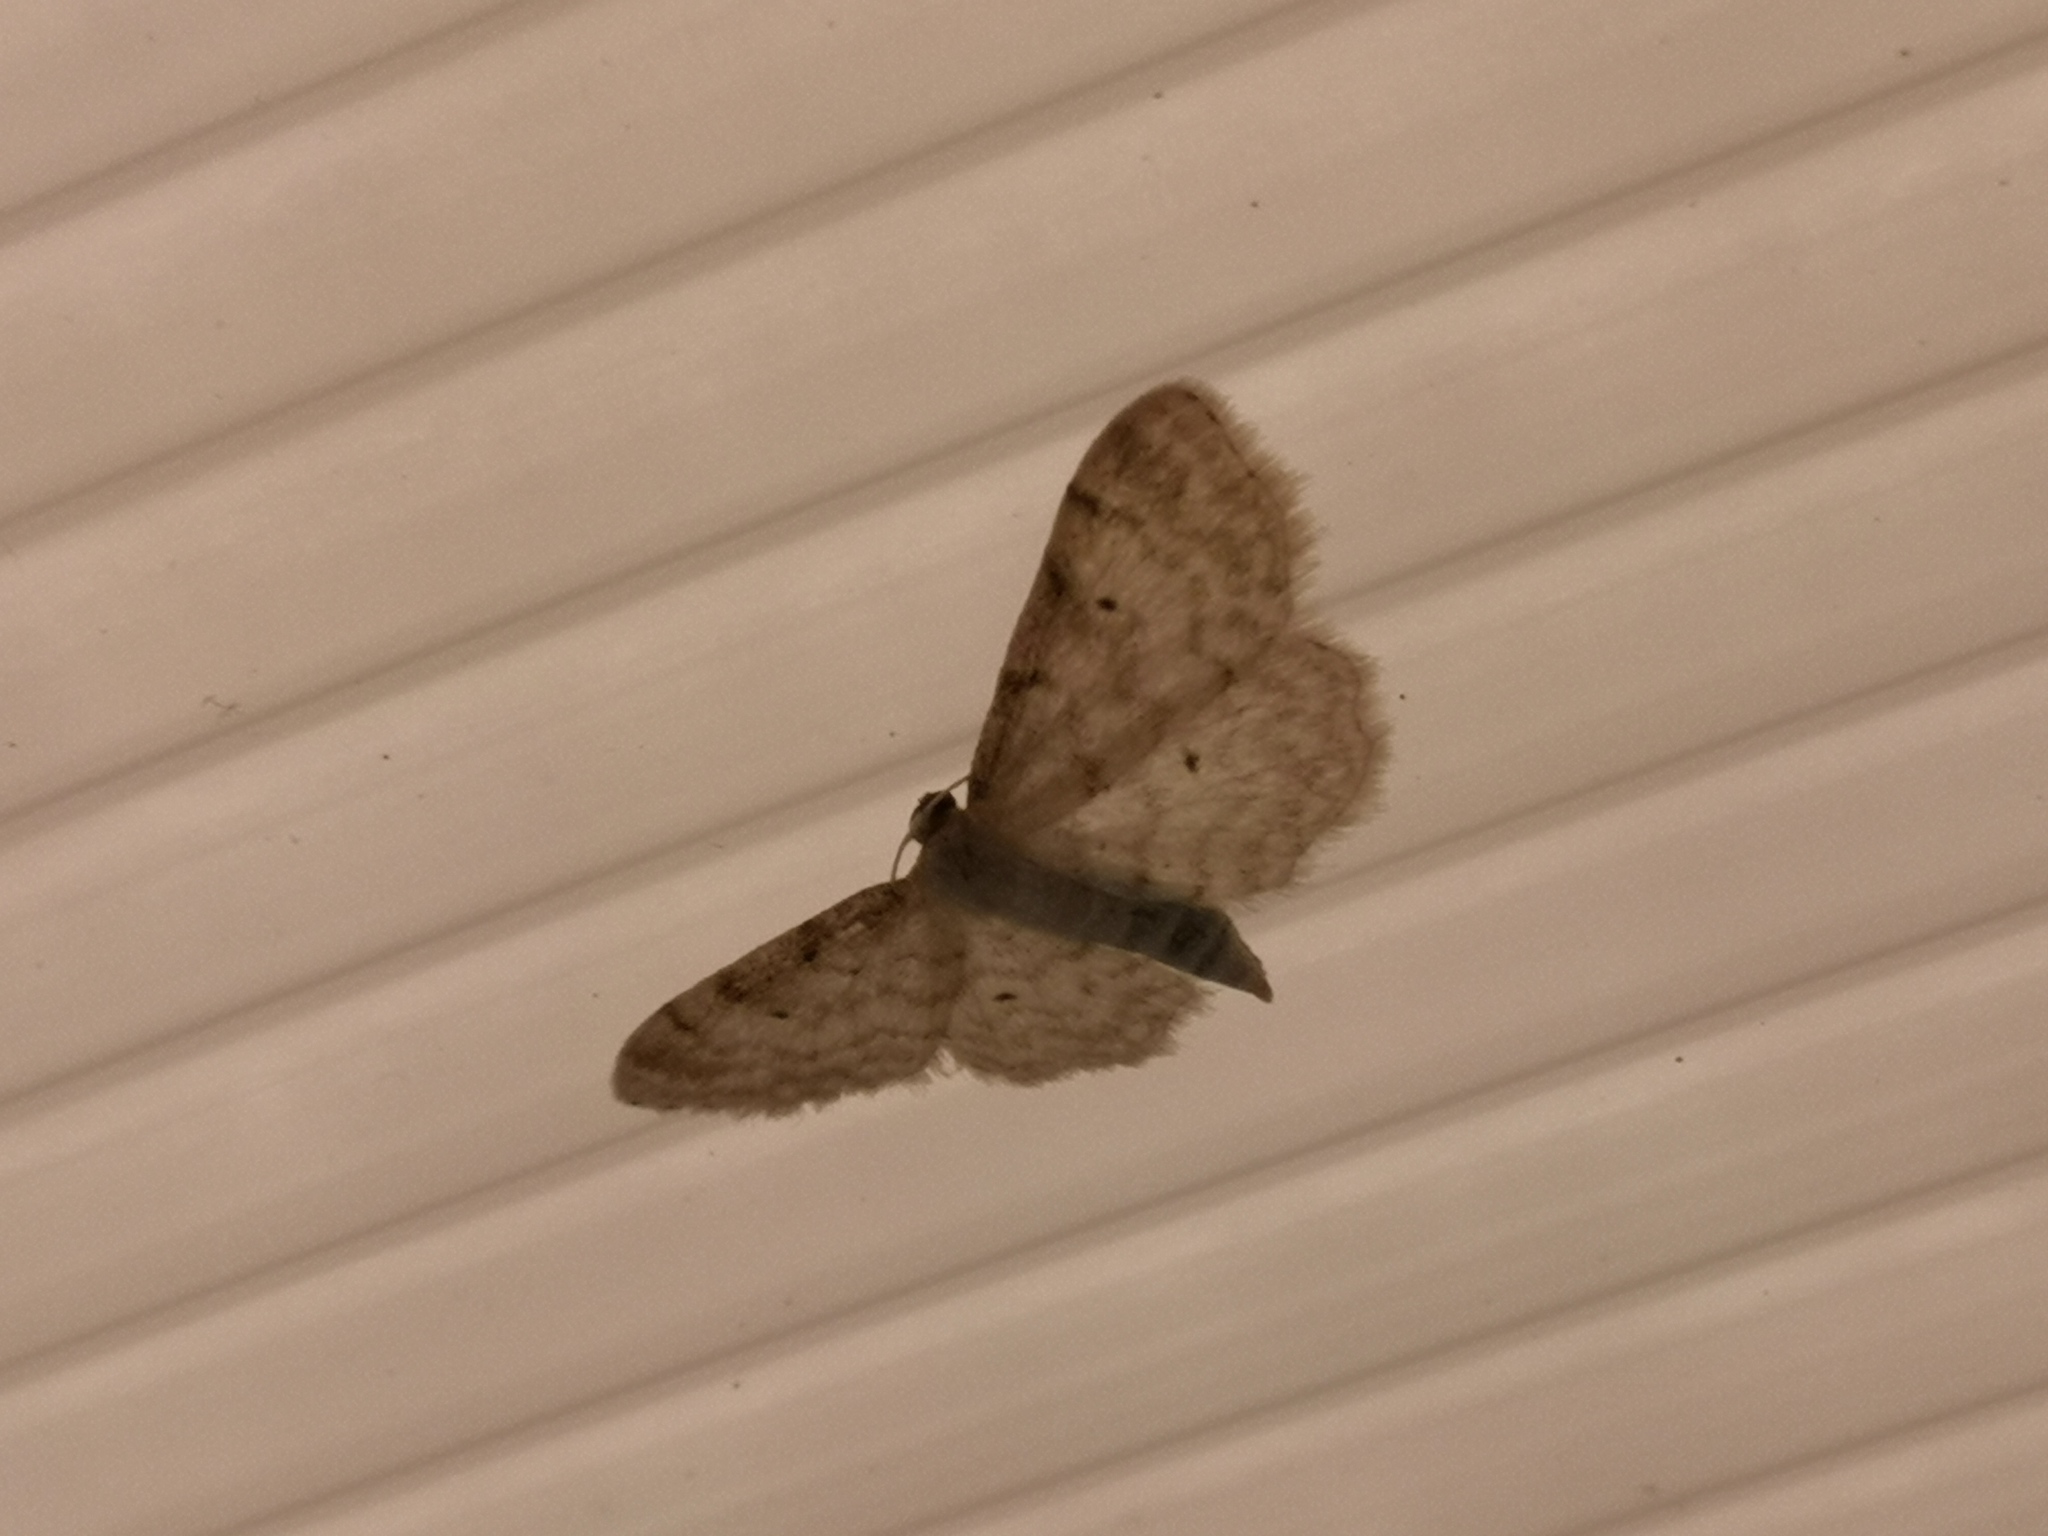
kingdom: Animalia
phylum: Arthropoda
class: Insecta
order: Lepidoptera
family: Geometridae
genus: Idaea
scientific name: Idaea fuscovenosa
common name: Dwarf cream wave
